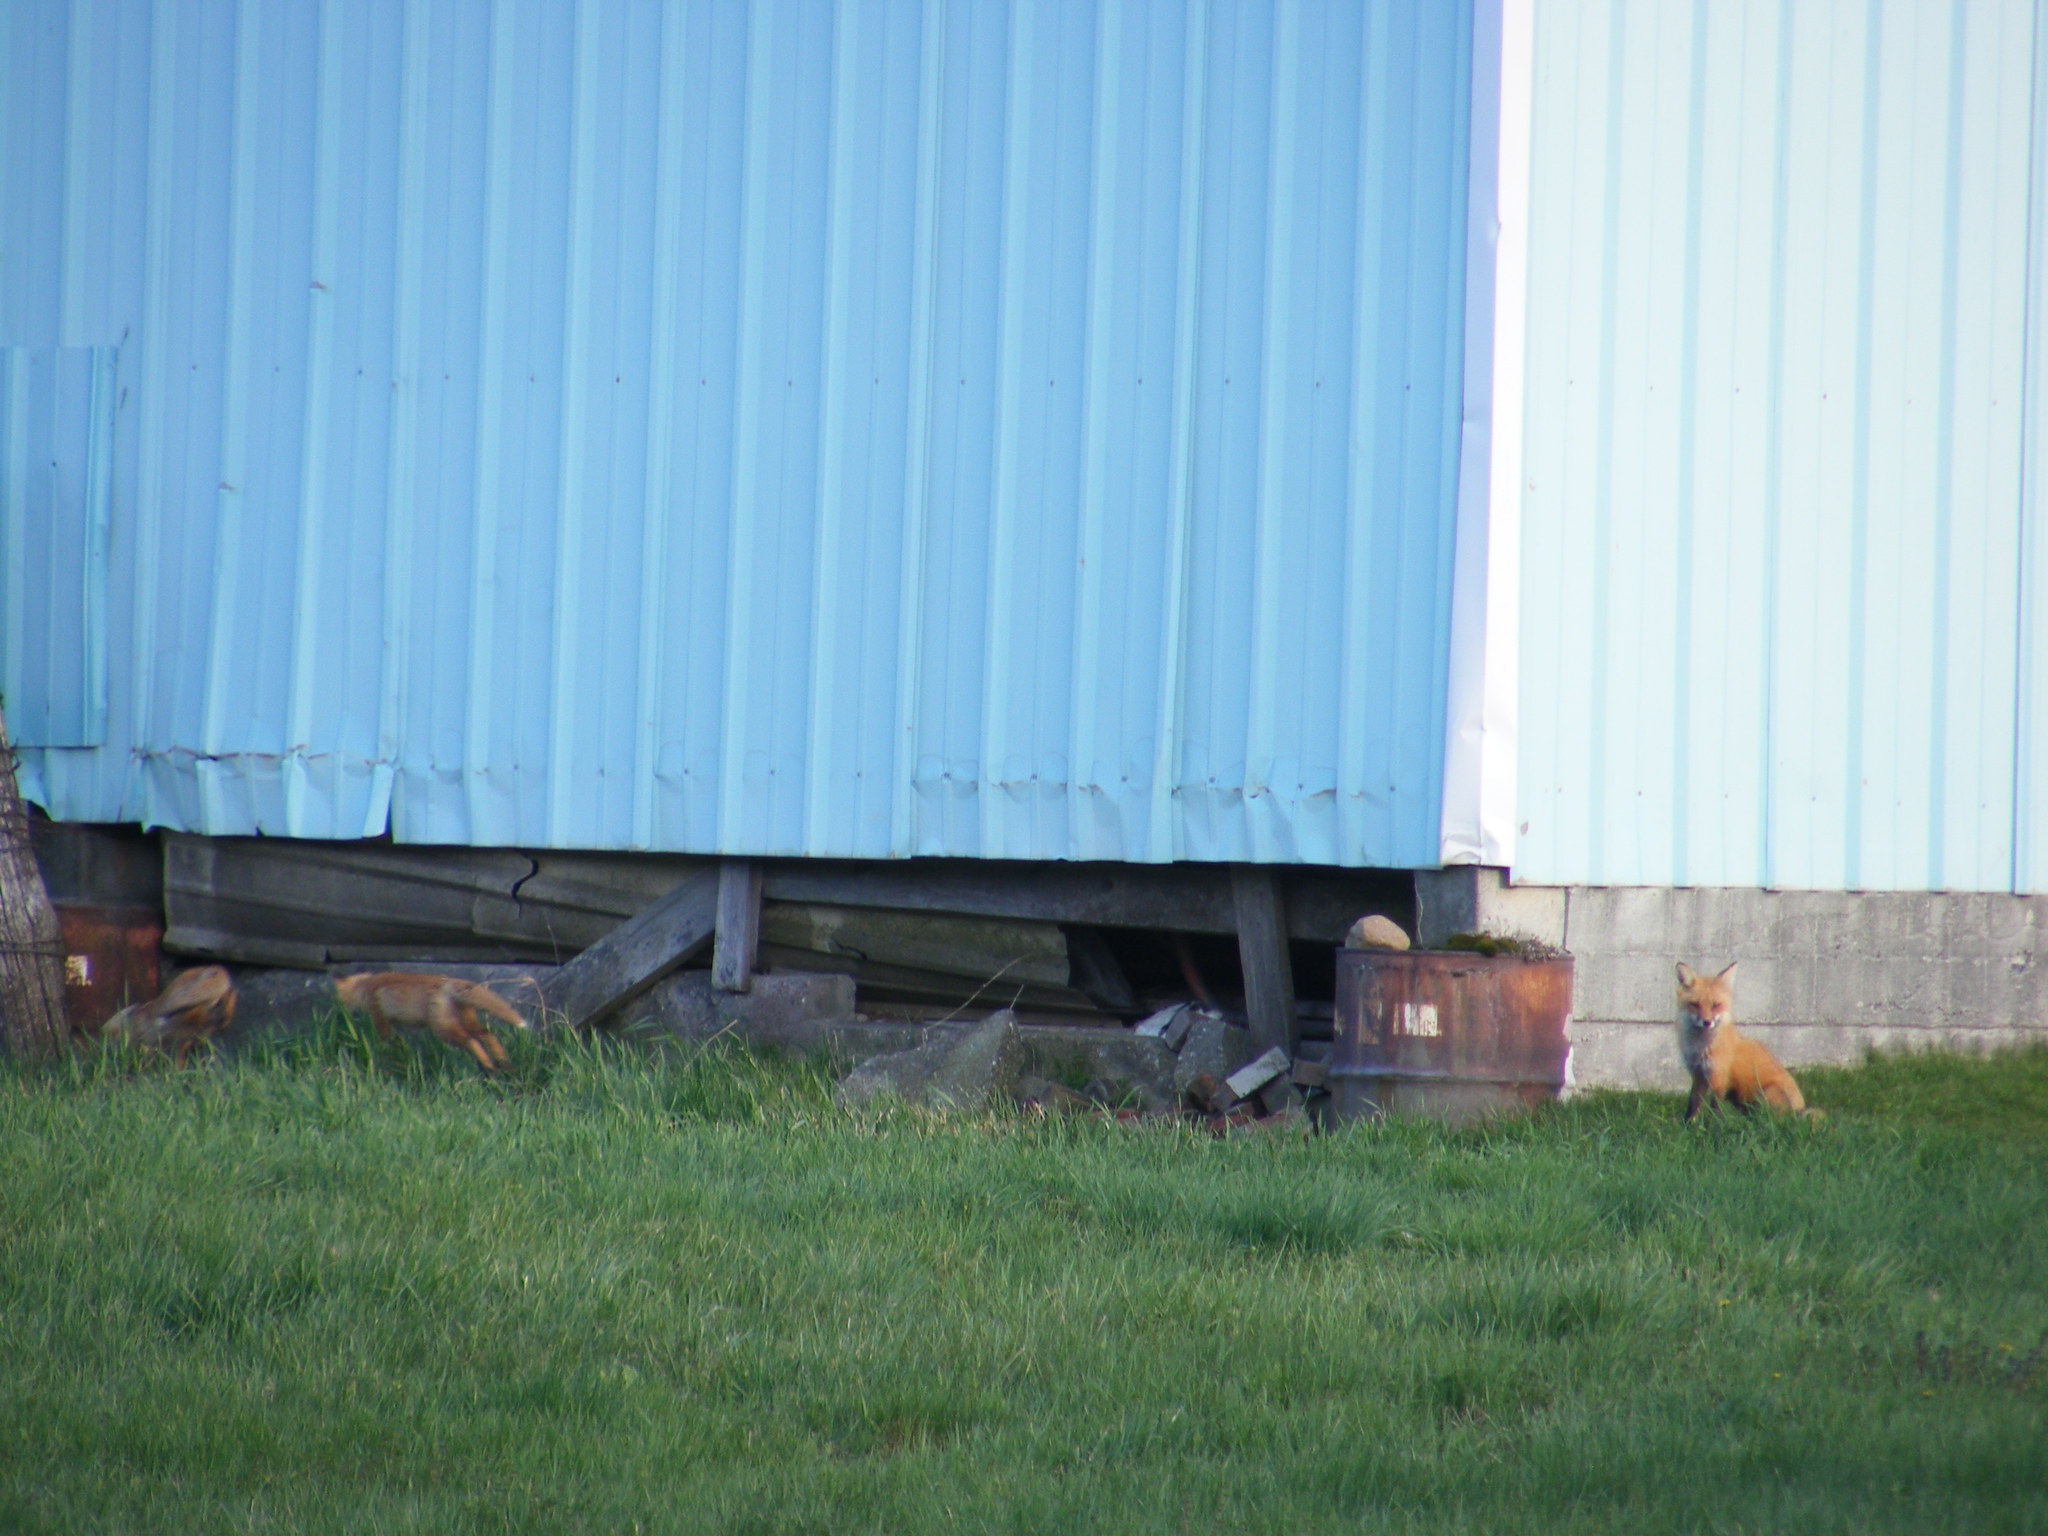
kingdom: Animalia
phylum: Chordata
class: Mammalia
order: Carnivora
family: Canidae
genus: Vulpes
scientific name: Vulpes vulpes
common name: Red fox
